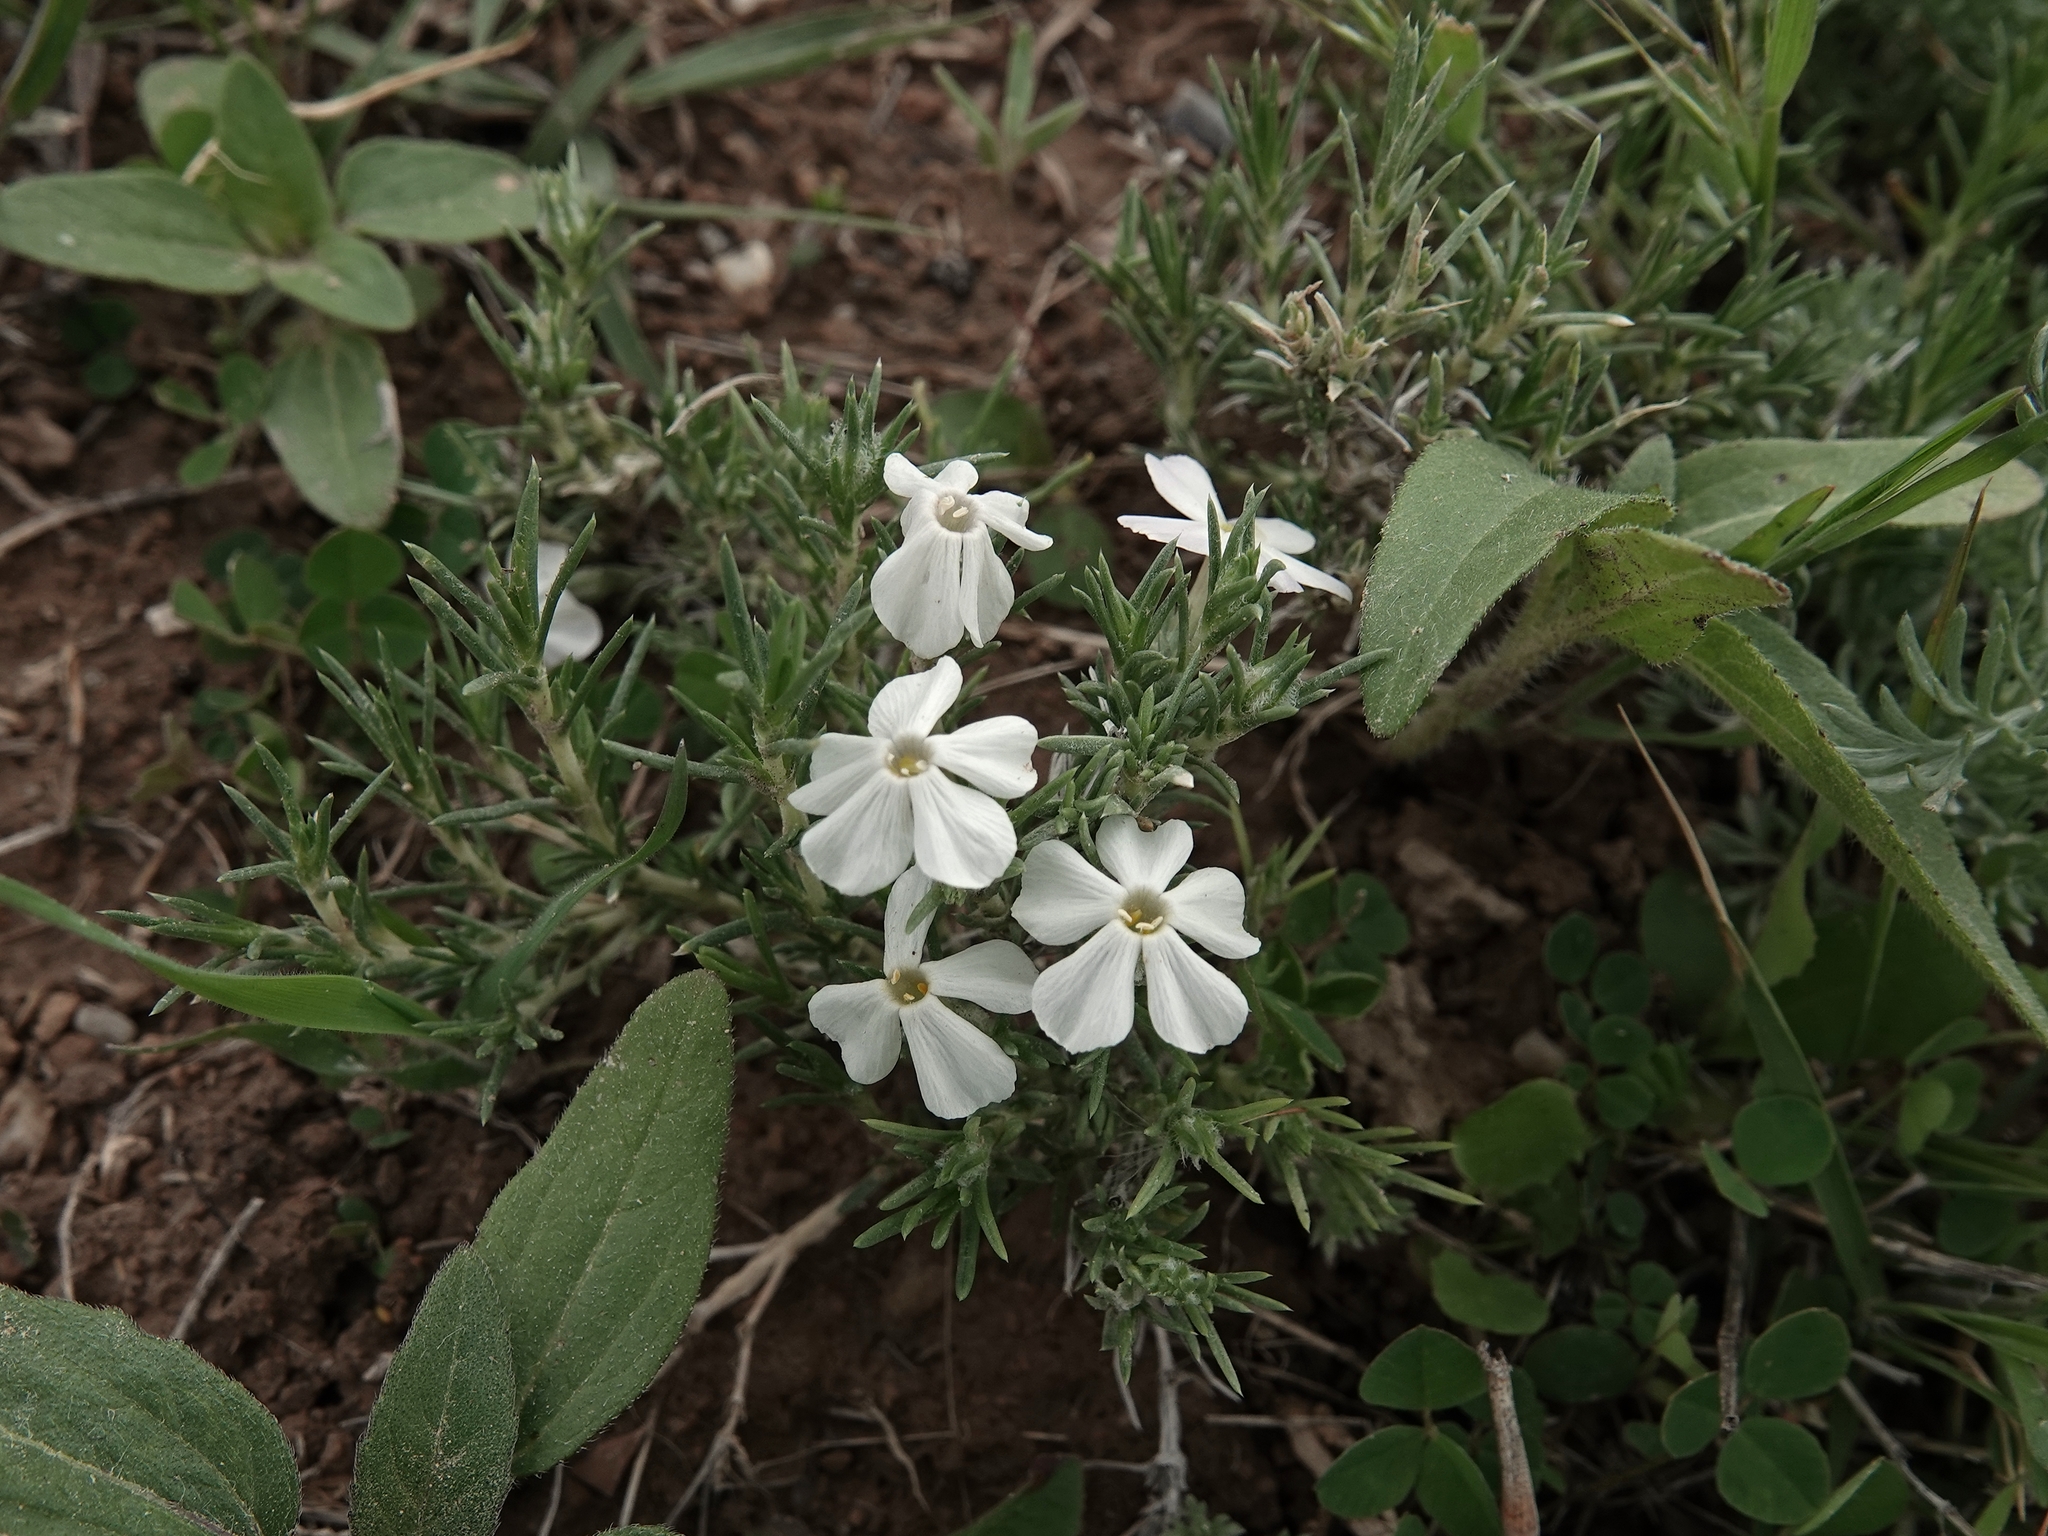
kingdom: Plantae
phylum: Tracheophyta
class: Magnoliopsida
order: Ericales
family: Polemoniaceae
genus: Phlox
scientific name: Phlox hoodii
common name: Moss phlox
